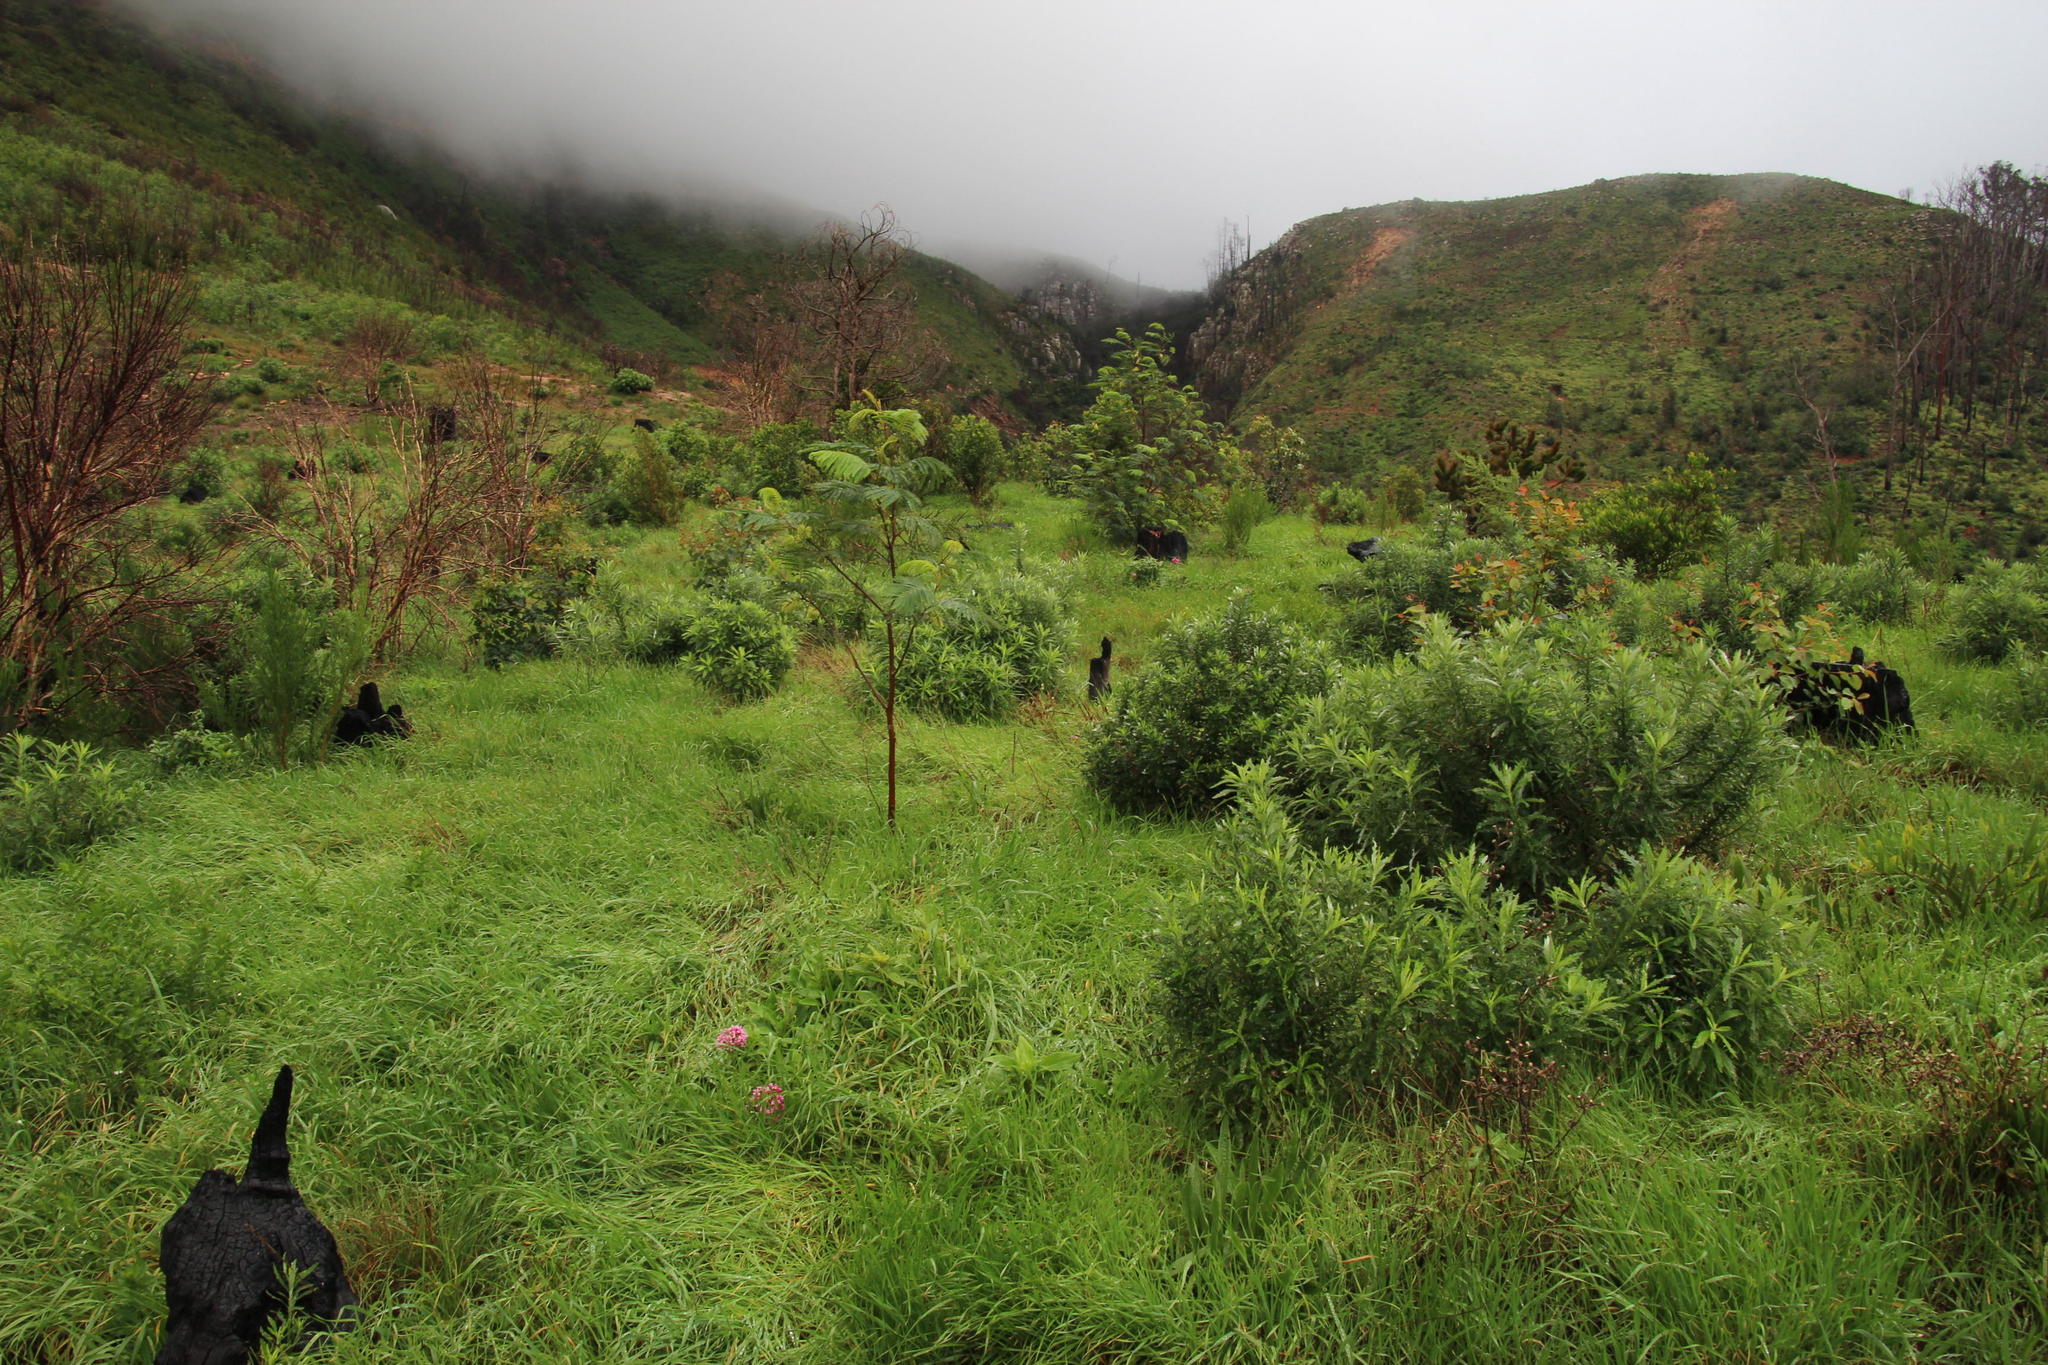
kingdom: Plantae
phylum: Tracheophyta
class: Magnoliopsida
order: Dipsacales
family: Caprifoliaceae
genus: Centranthus
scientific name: Centranthus ruber
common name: Red valerian
